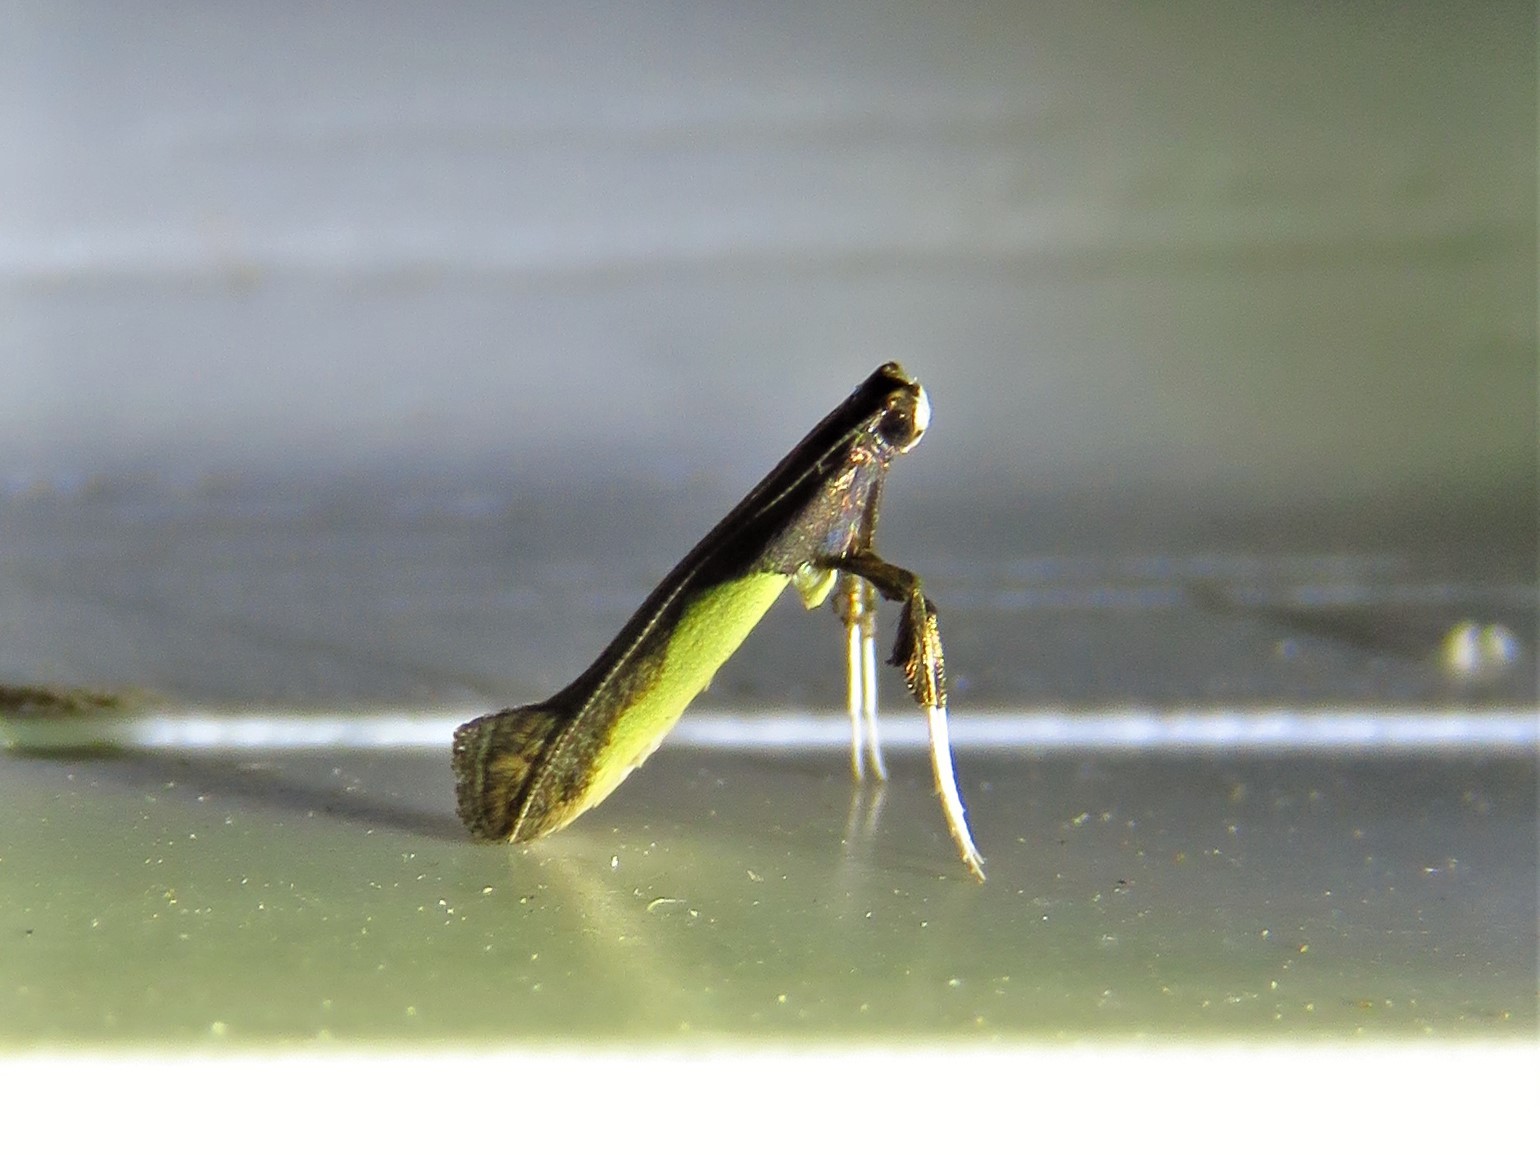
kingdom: Animalia
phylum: Arthropoda
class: Insecta
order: Lepidoptera
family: Gracillariidae
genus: Caloptilia
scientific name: Caloptilia belfragella
